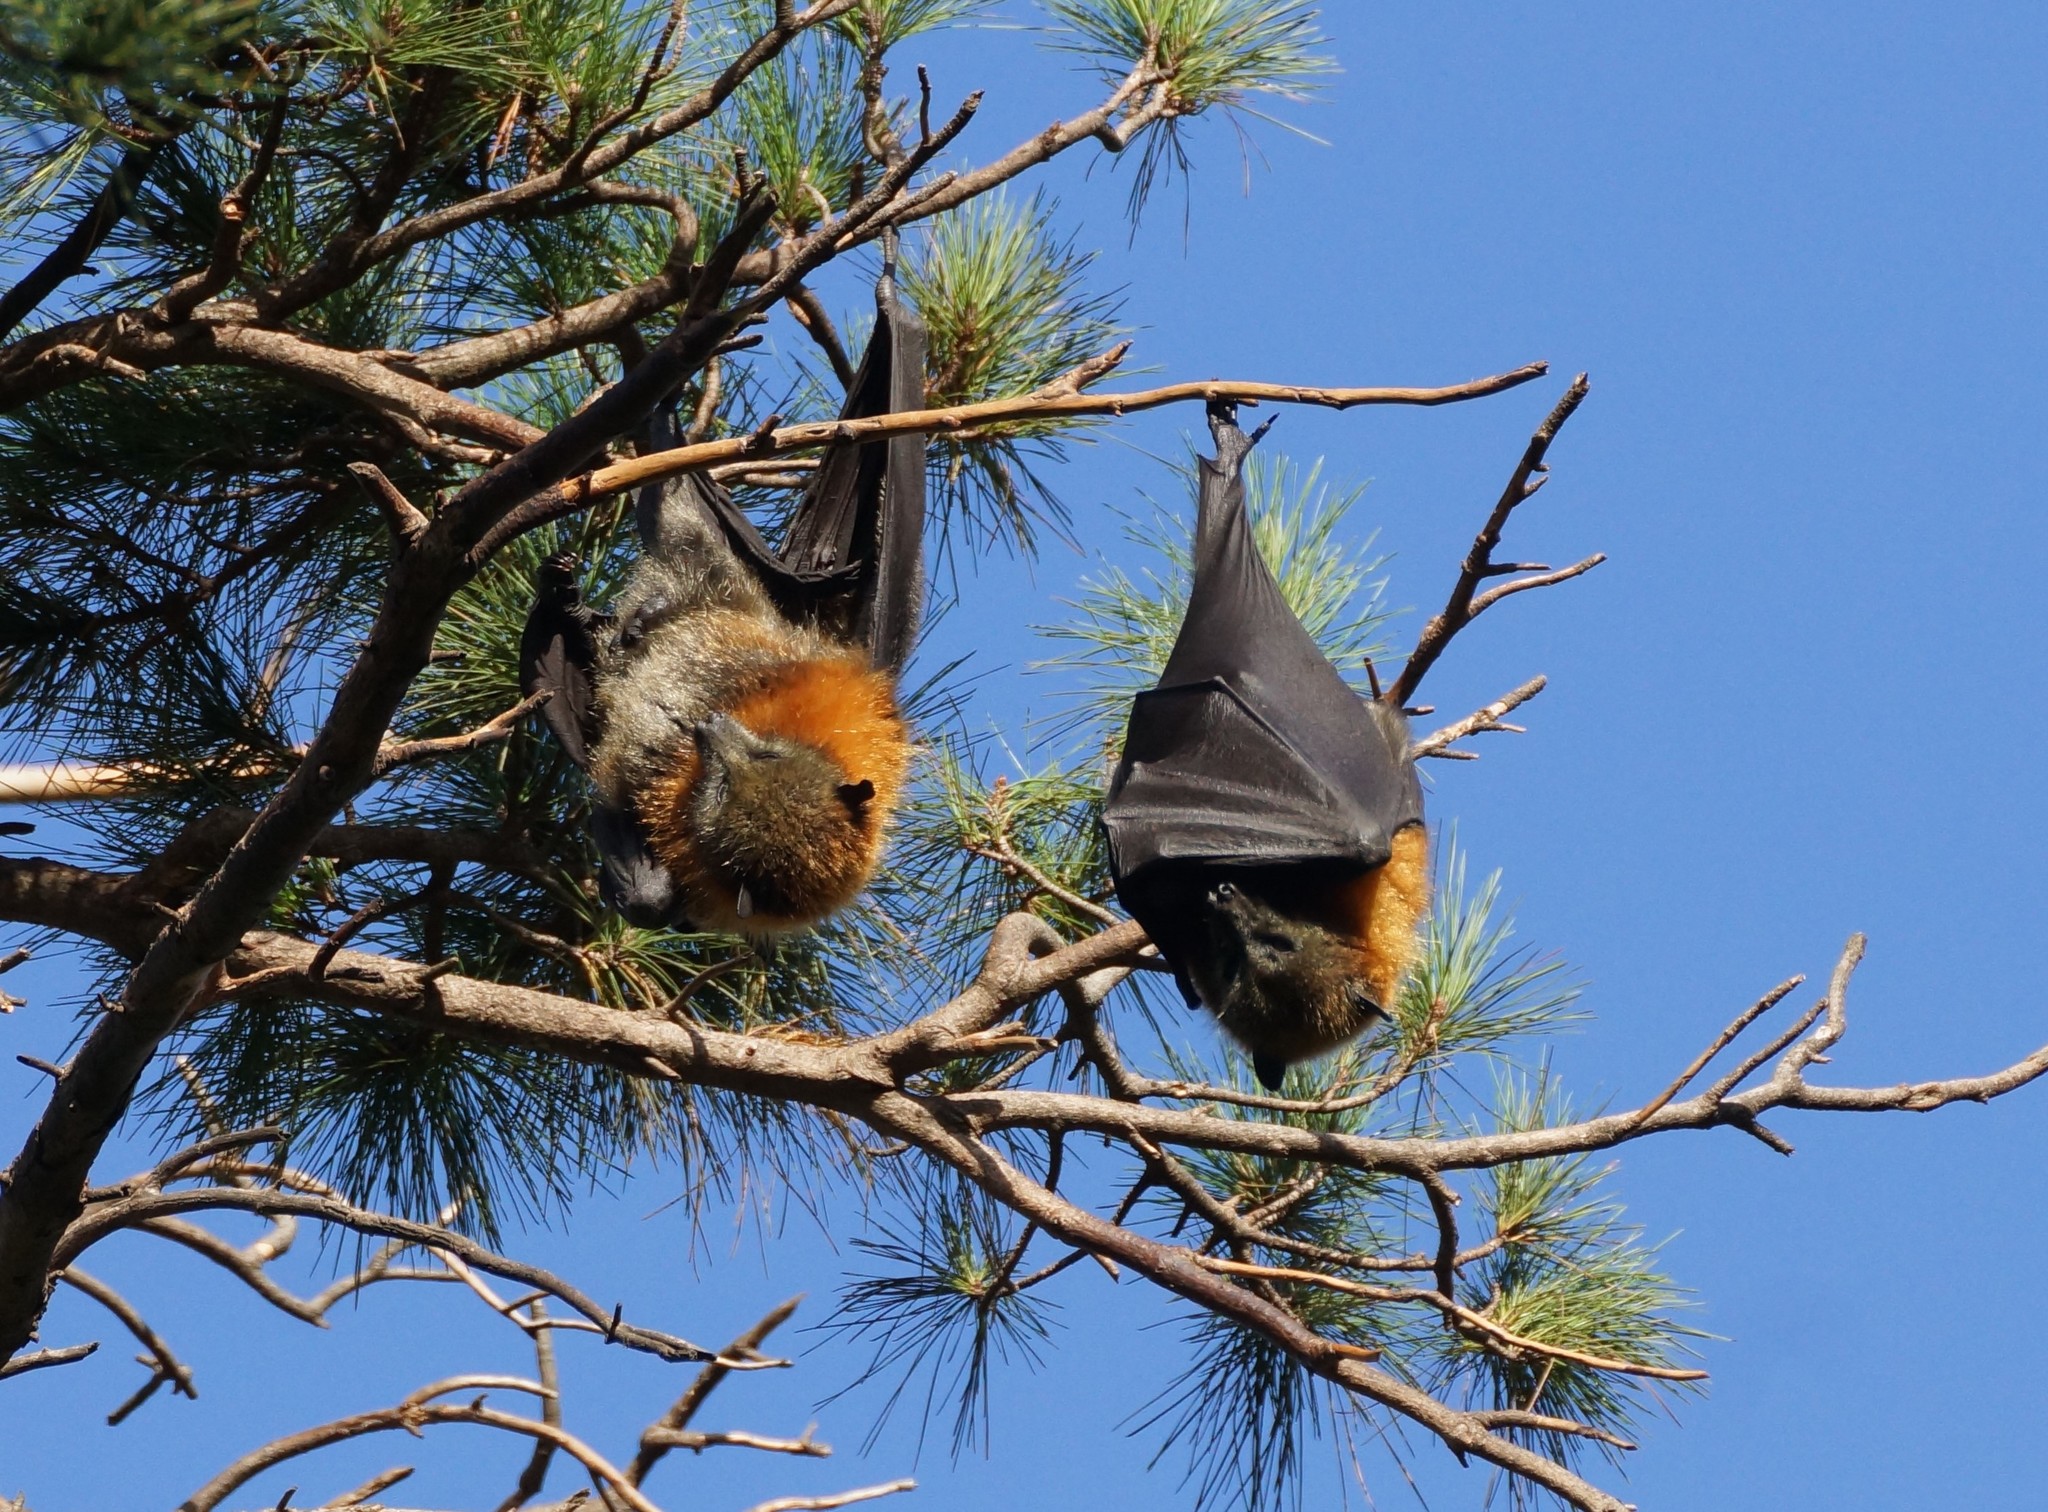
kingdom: Animalia
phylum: Chordata
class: Mammalia
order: Chiroptera
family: Pteropodidae
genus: Pteropus
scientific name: Pteropus poliocephalus
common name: Gray-headed flying fox
